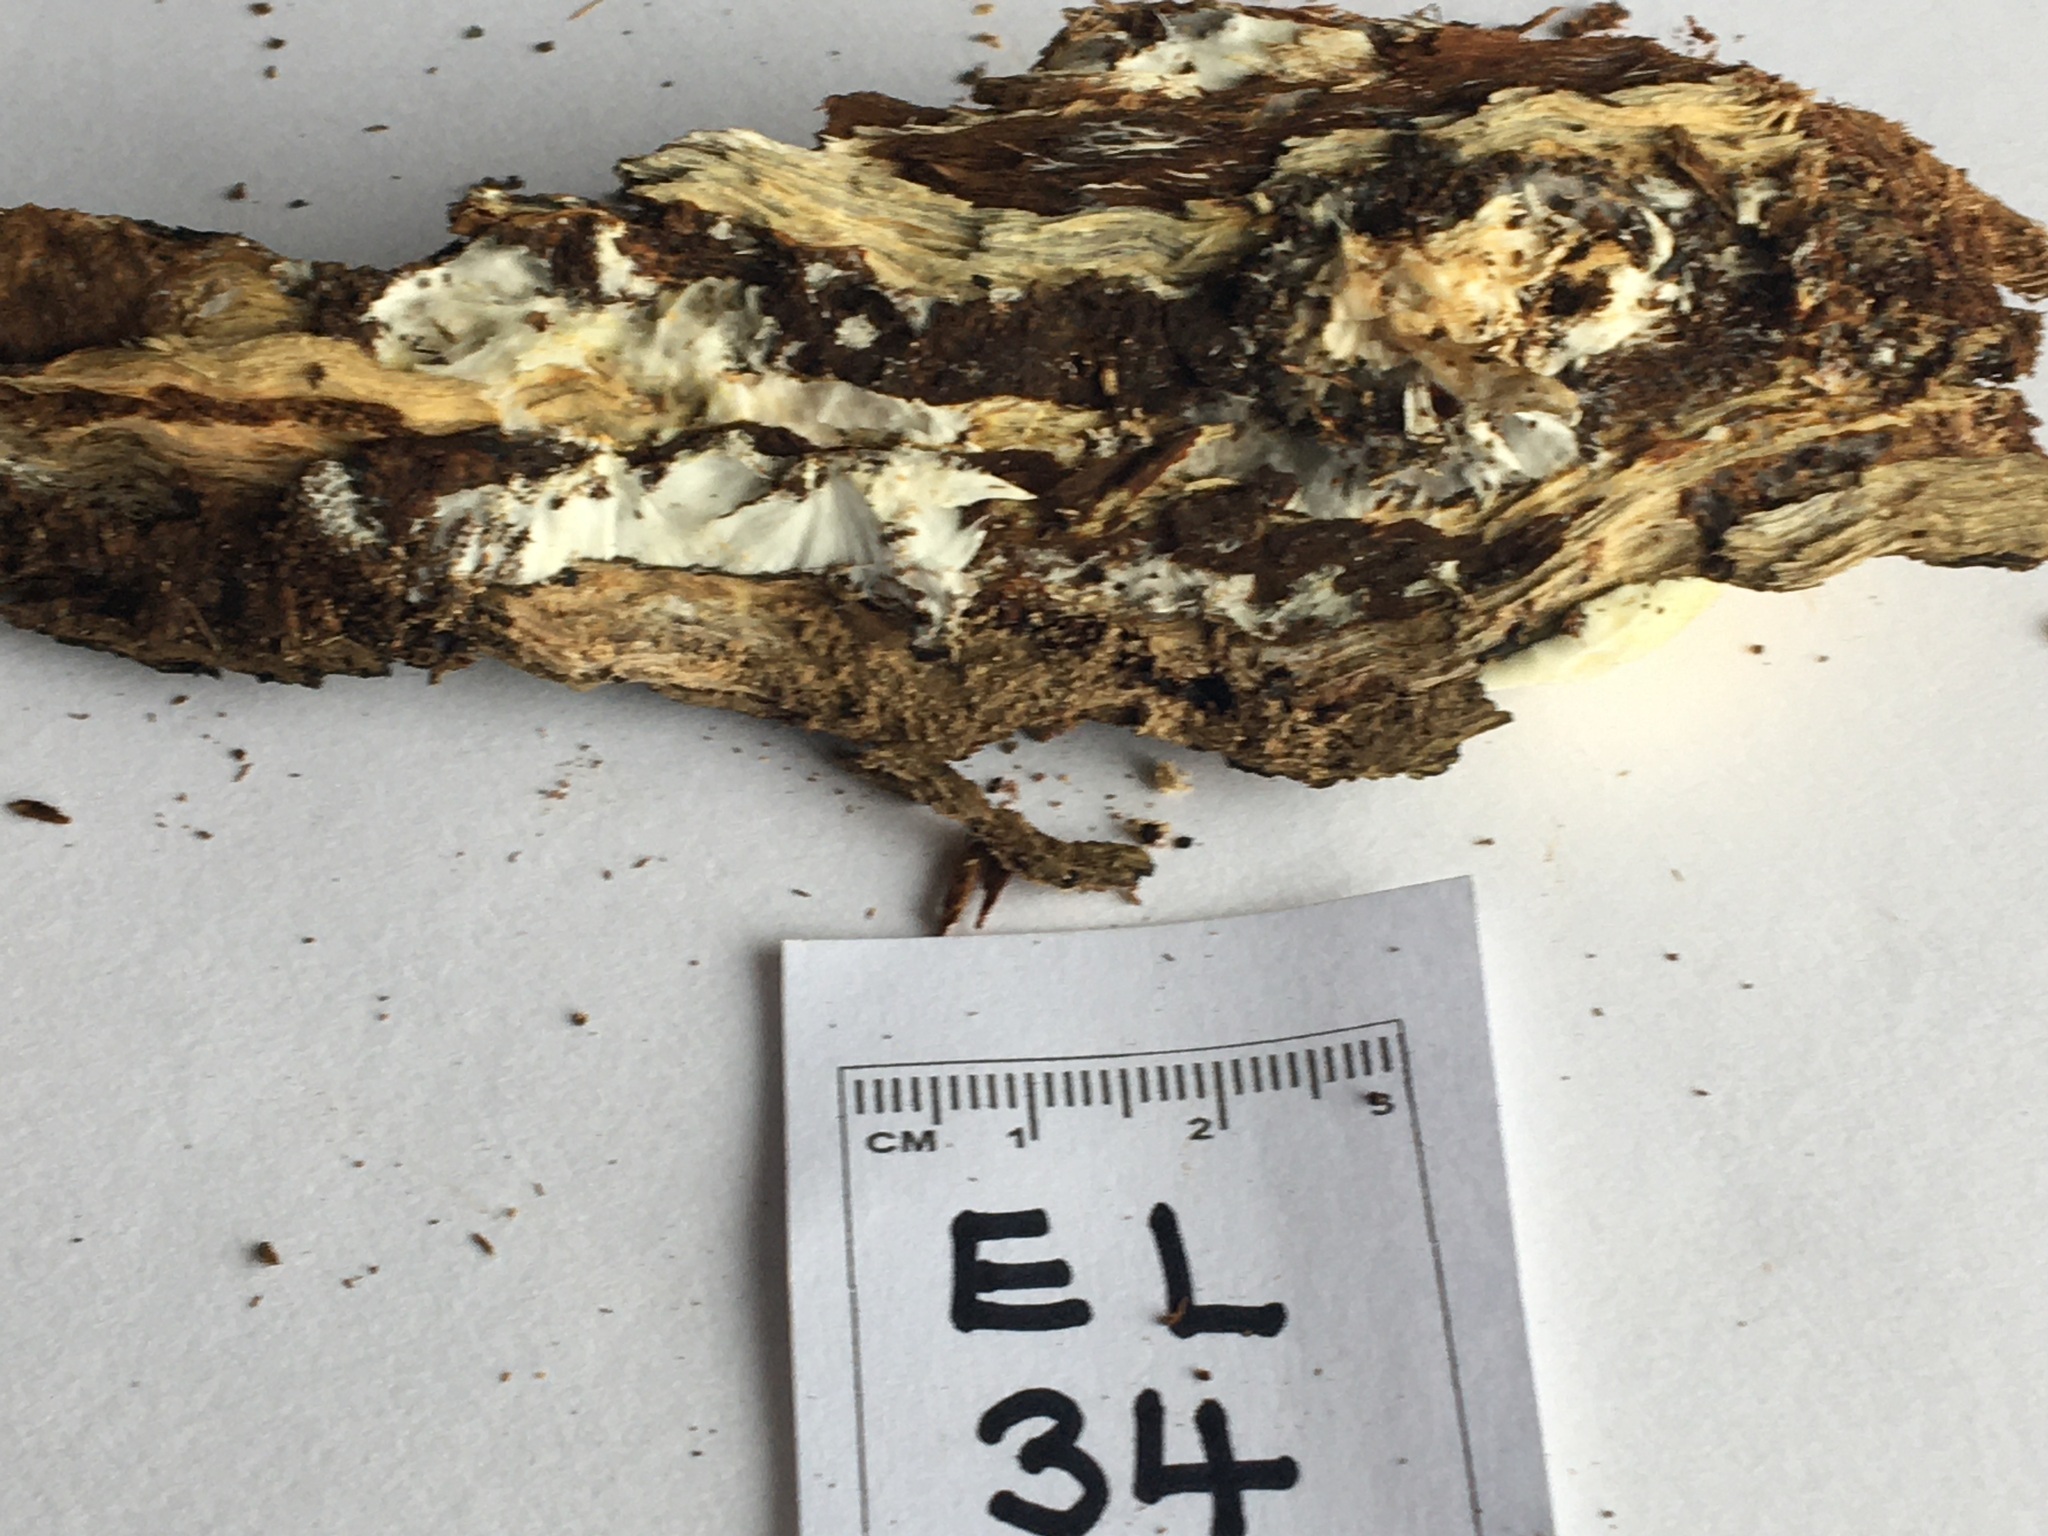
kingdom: Fungi
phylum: Basidiomycota
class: Agaricomycetes
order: Boletales
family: Coniophoraceae
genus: Gyrodontium
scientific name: Gyrodontium sacchari
